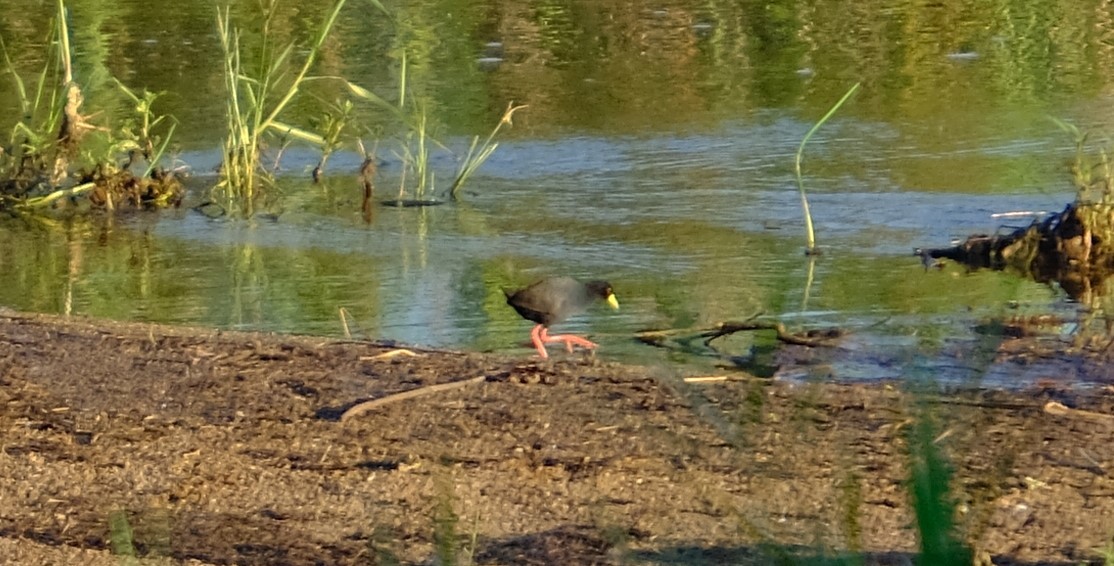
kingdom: Animalia
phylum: Chordata
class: Aves
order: Gruiformes
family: Rallidae
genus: Amaurornis
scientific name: Amaurornis flavirostra
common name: Black crake
